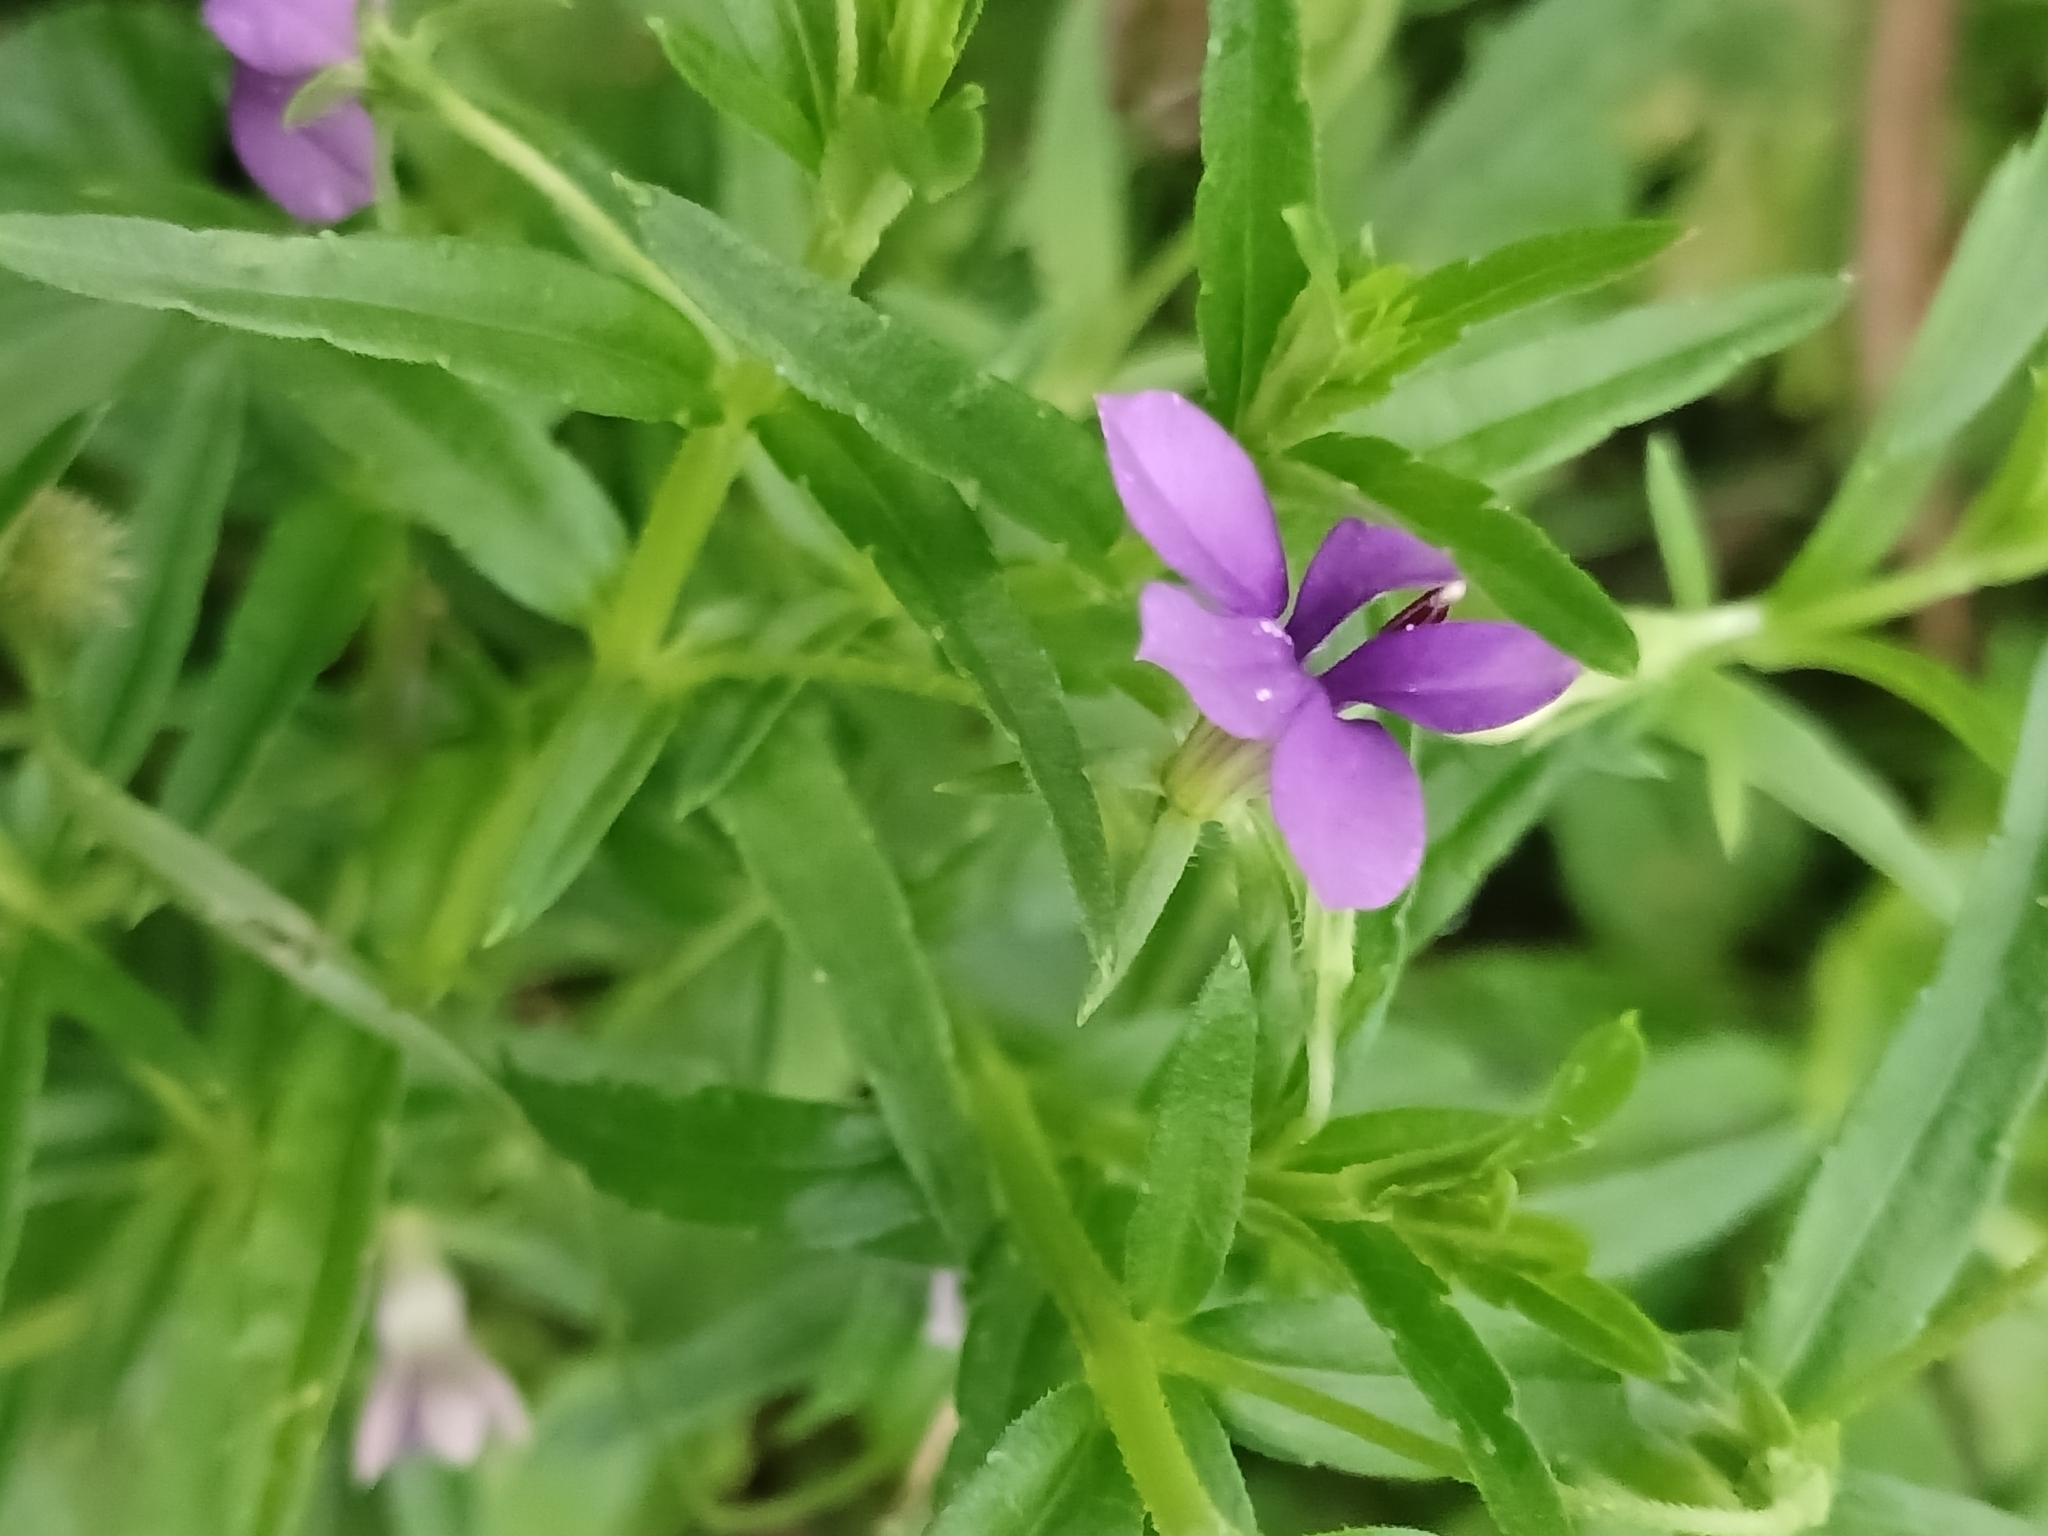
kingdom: Plantae
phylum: Tracheophyta
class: Magnoliopsida
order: Asterales
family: Campanulaceae
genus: Monopsis
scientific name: Monopsis stellarioides
